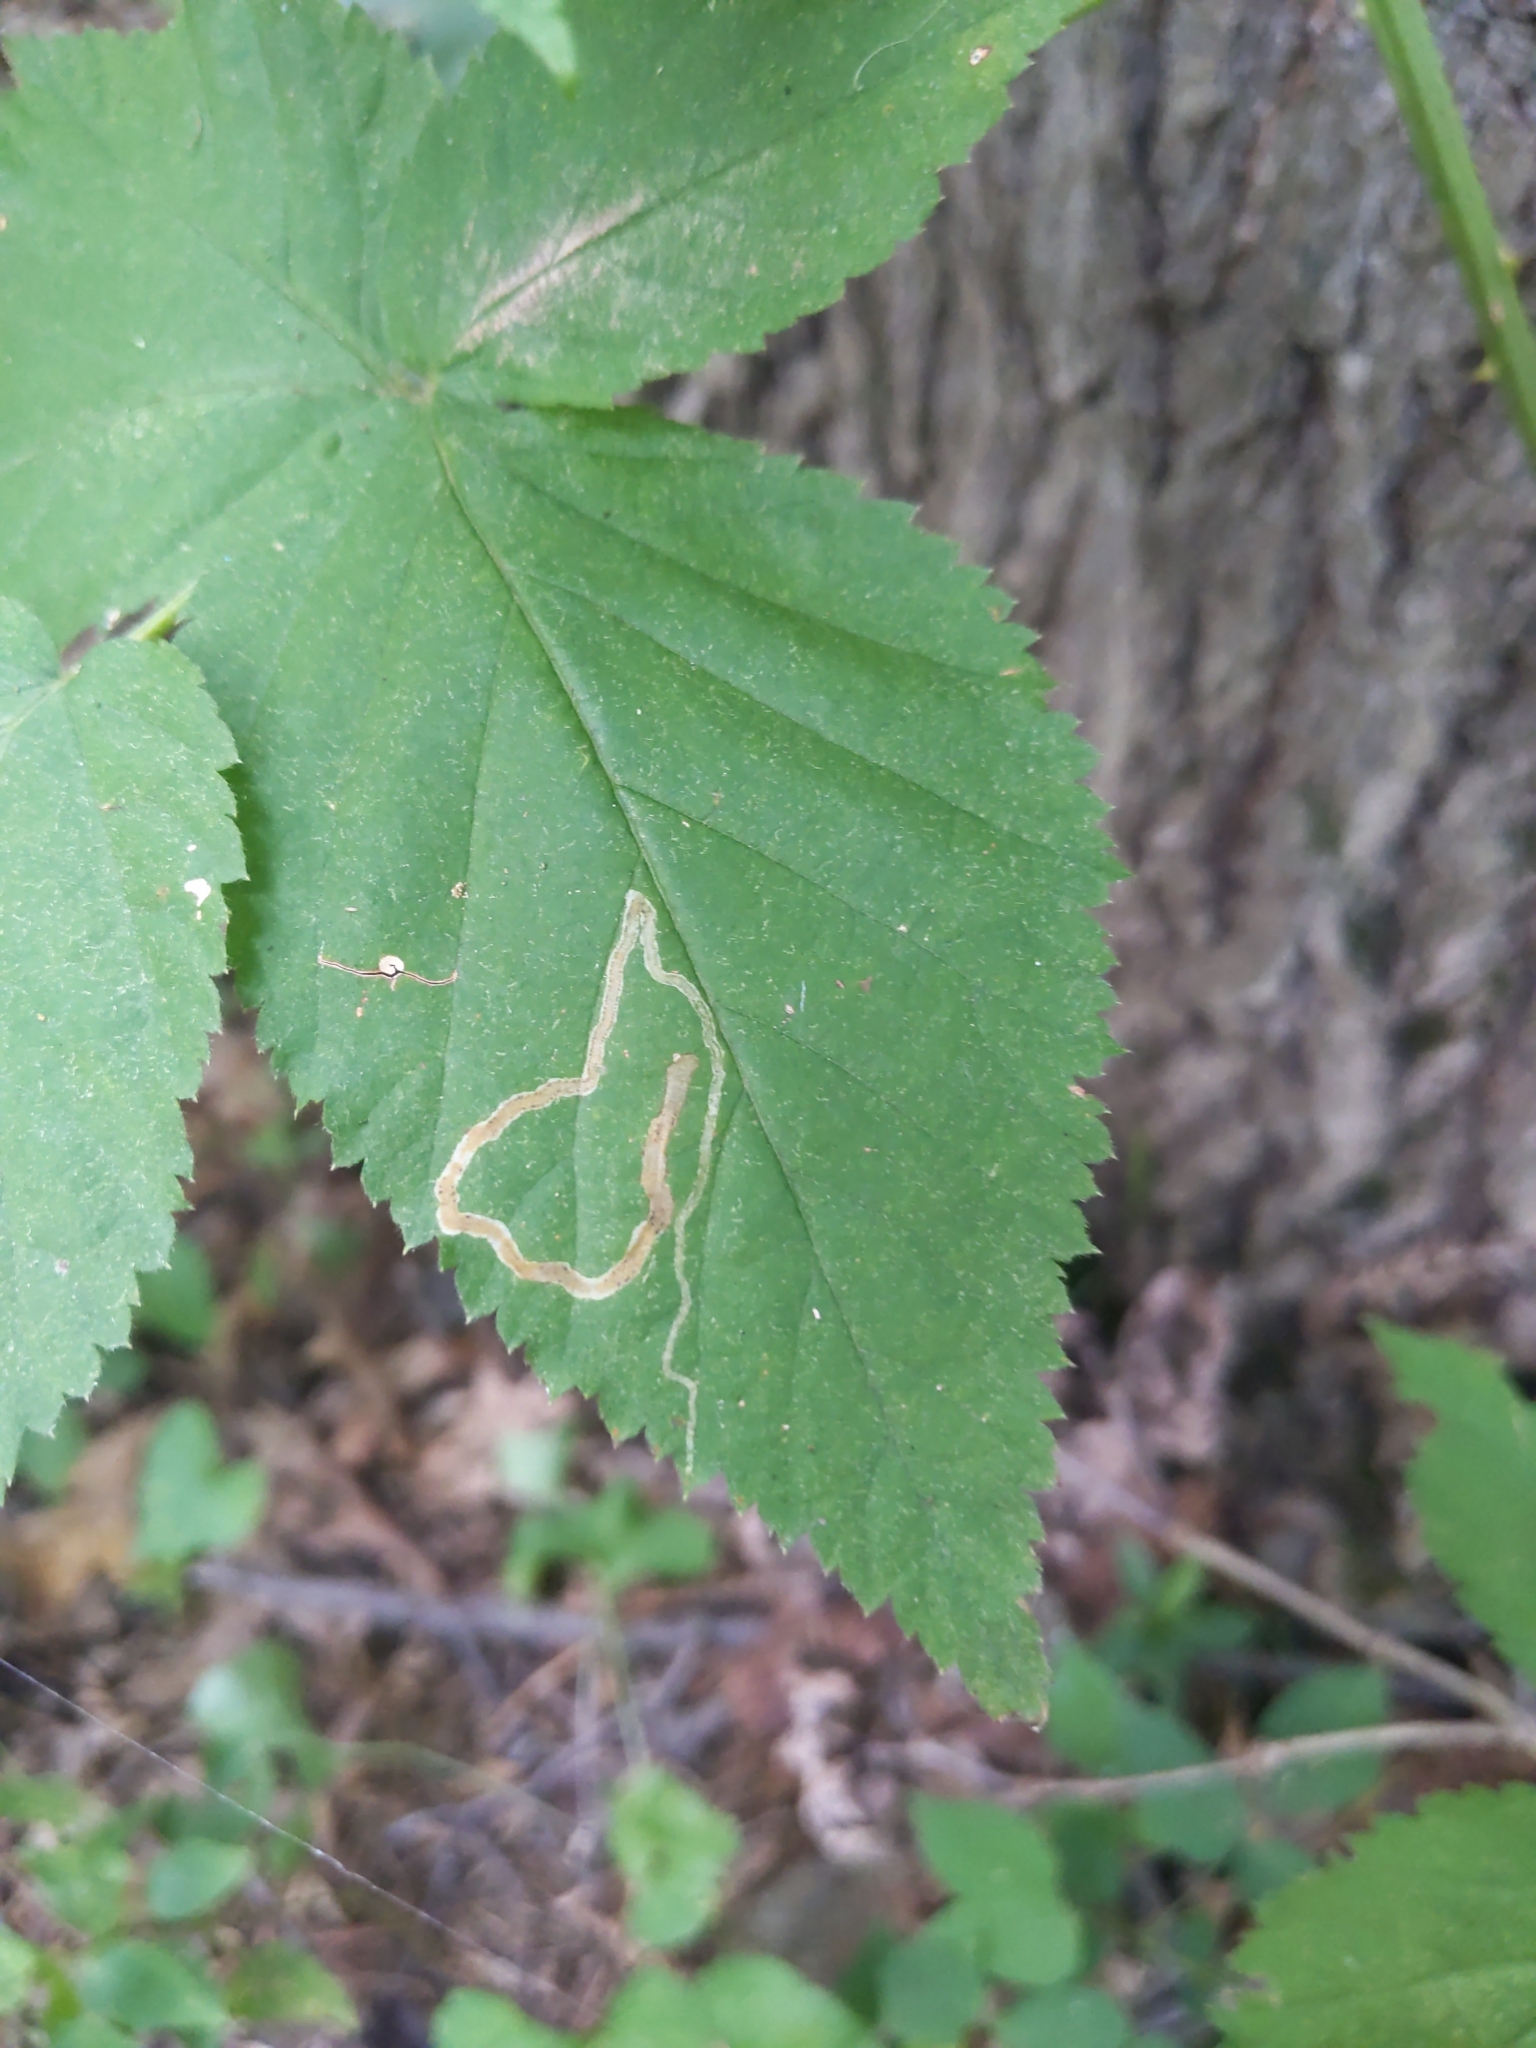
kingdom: Animalia
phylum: Arthropoda
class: Insecta
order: Diptera
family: Agromyzidae
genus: Agromyza
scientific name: Agromyza vockerothi
